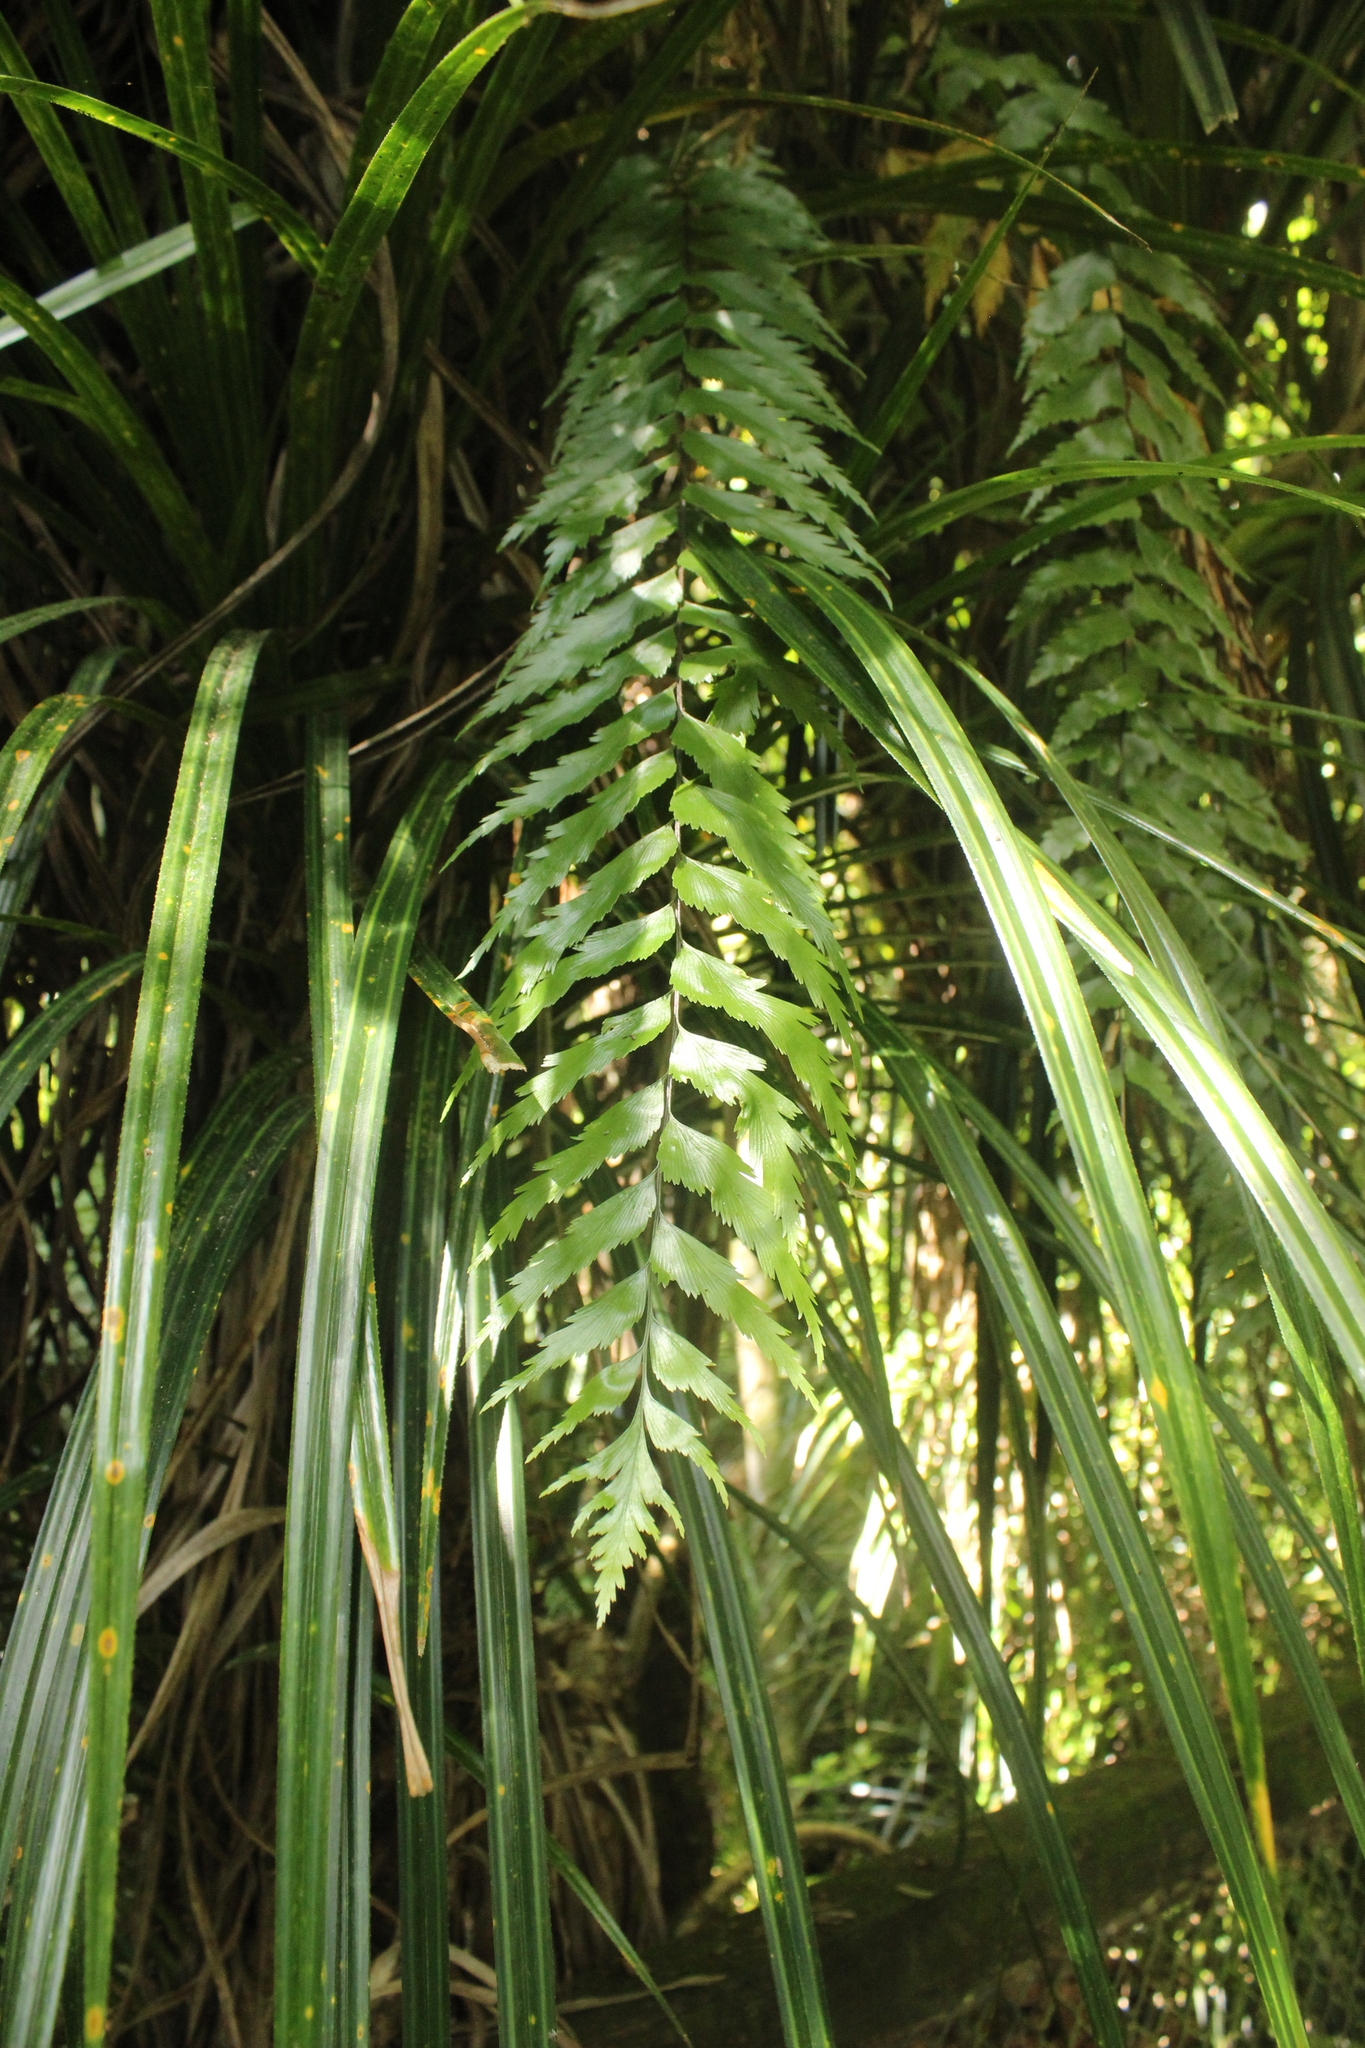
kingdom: Plantae
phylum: Tracheophyta
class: Polypodiopsida
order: Polypodiales
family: Aspleniaceae
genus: Asplenium
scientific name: Asplenium polyodon
